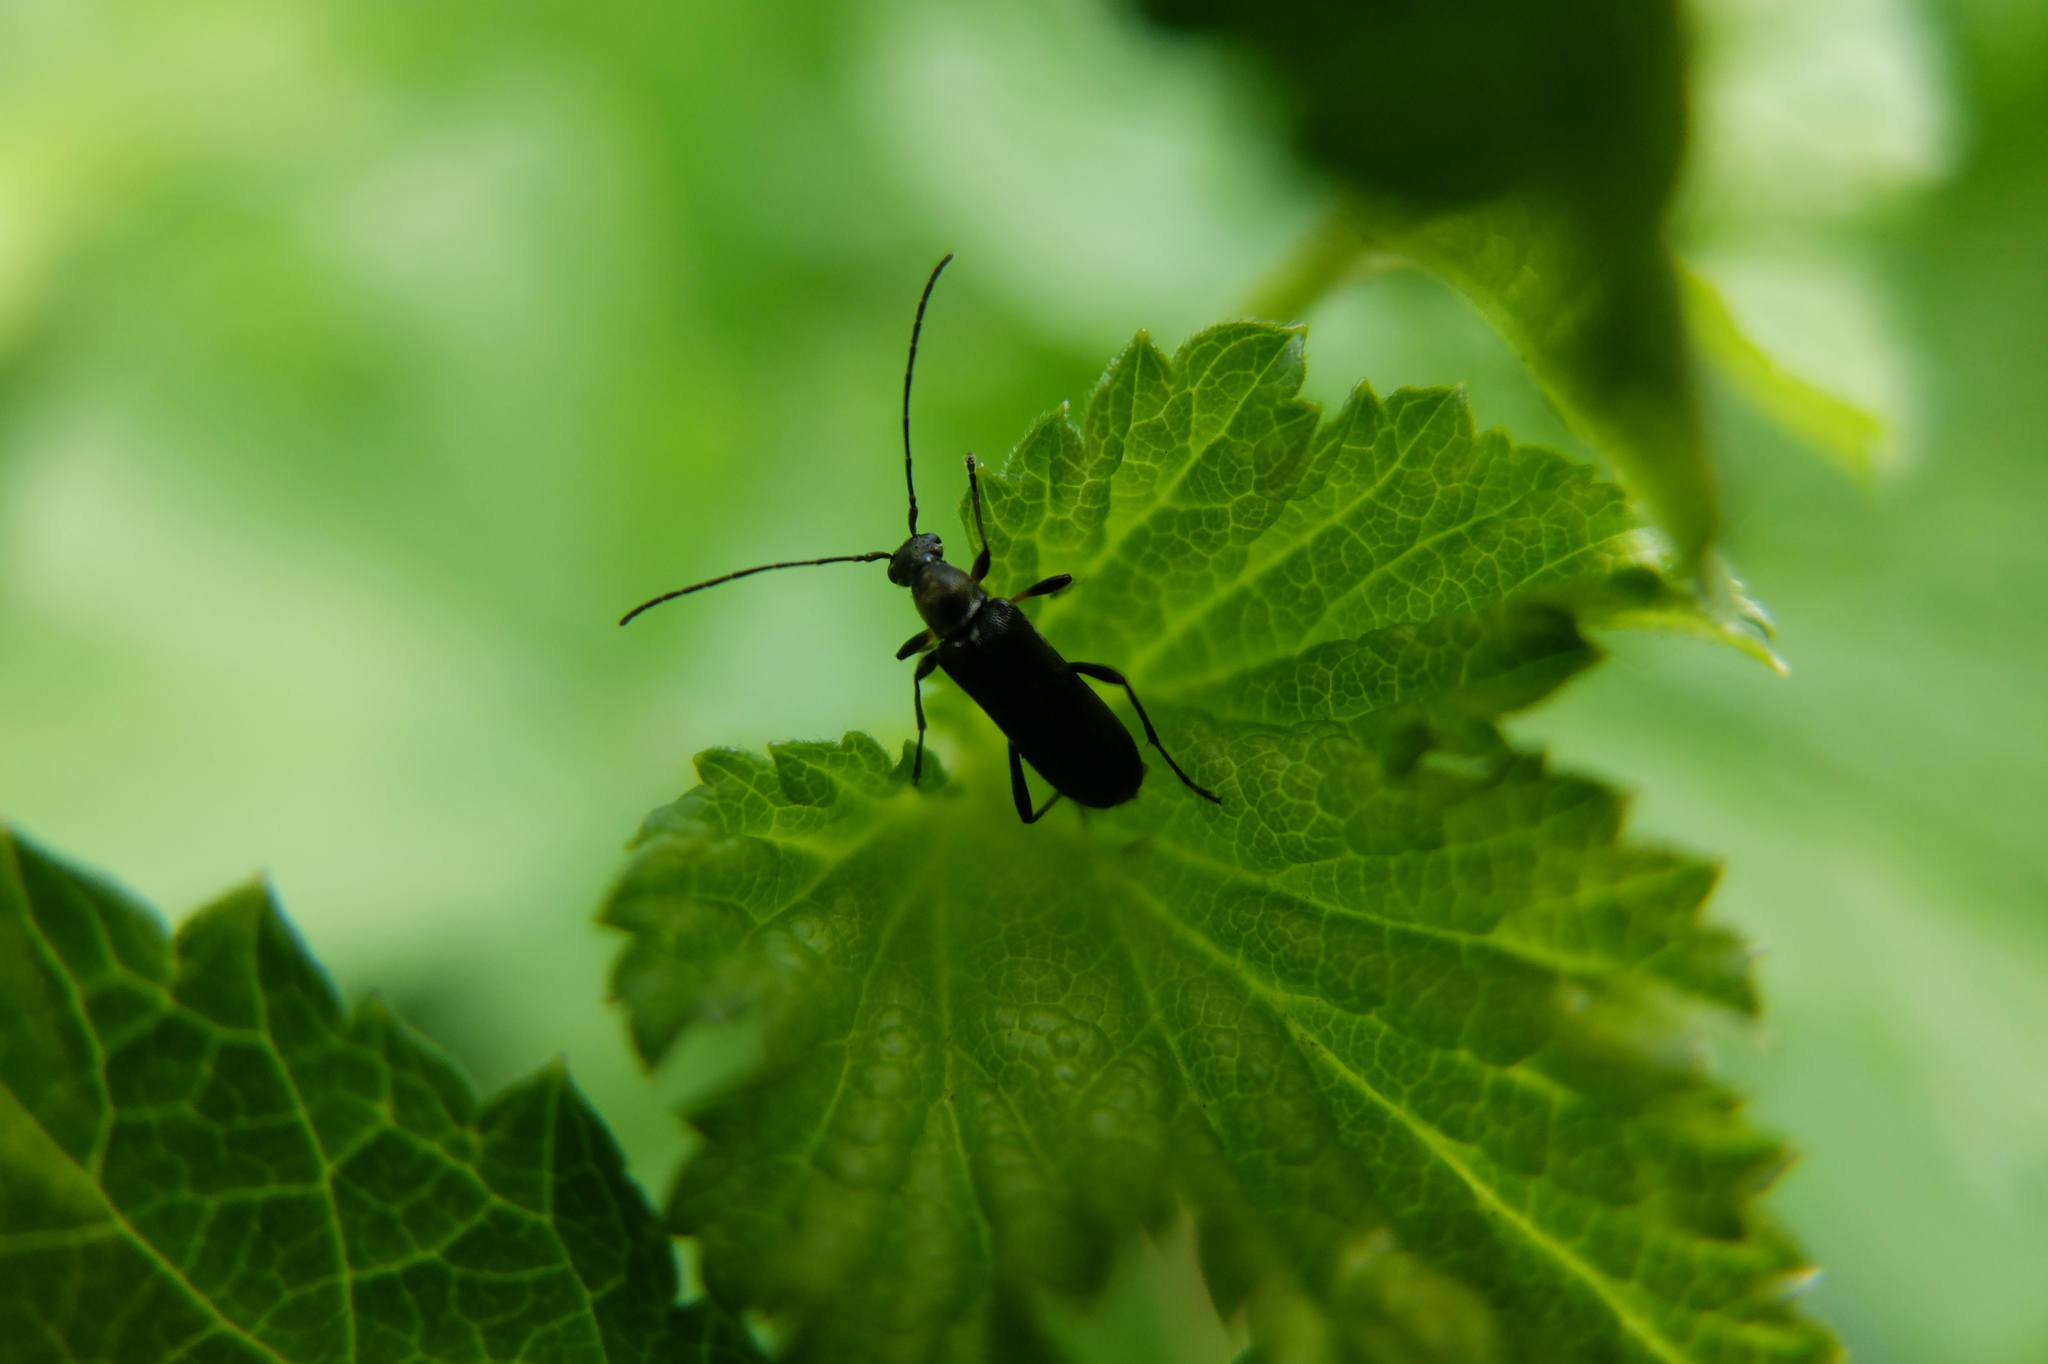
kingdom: Animalia
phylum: Arthropoda
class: Insecta
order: Coleoptera
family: Cerambycidae
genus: Grammoptera
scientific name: Grammoptera ruficornis
